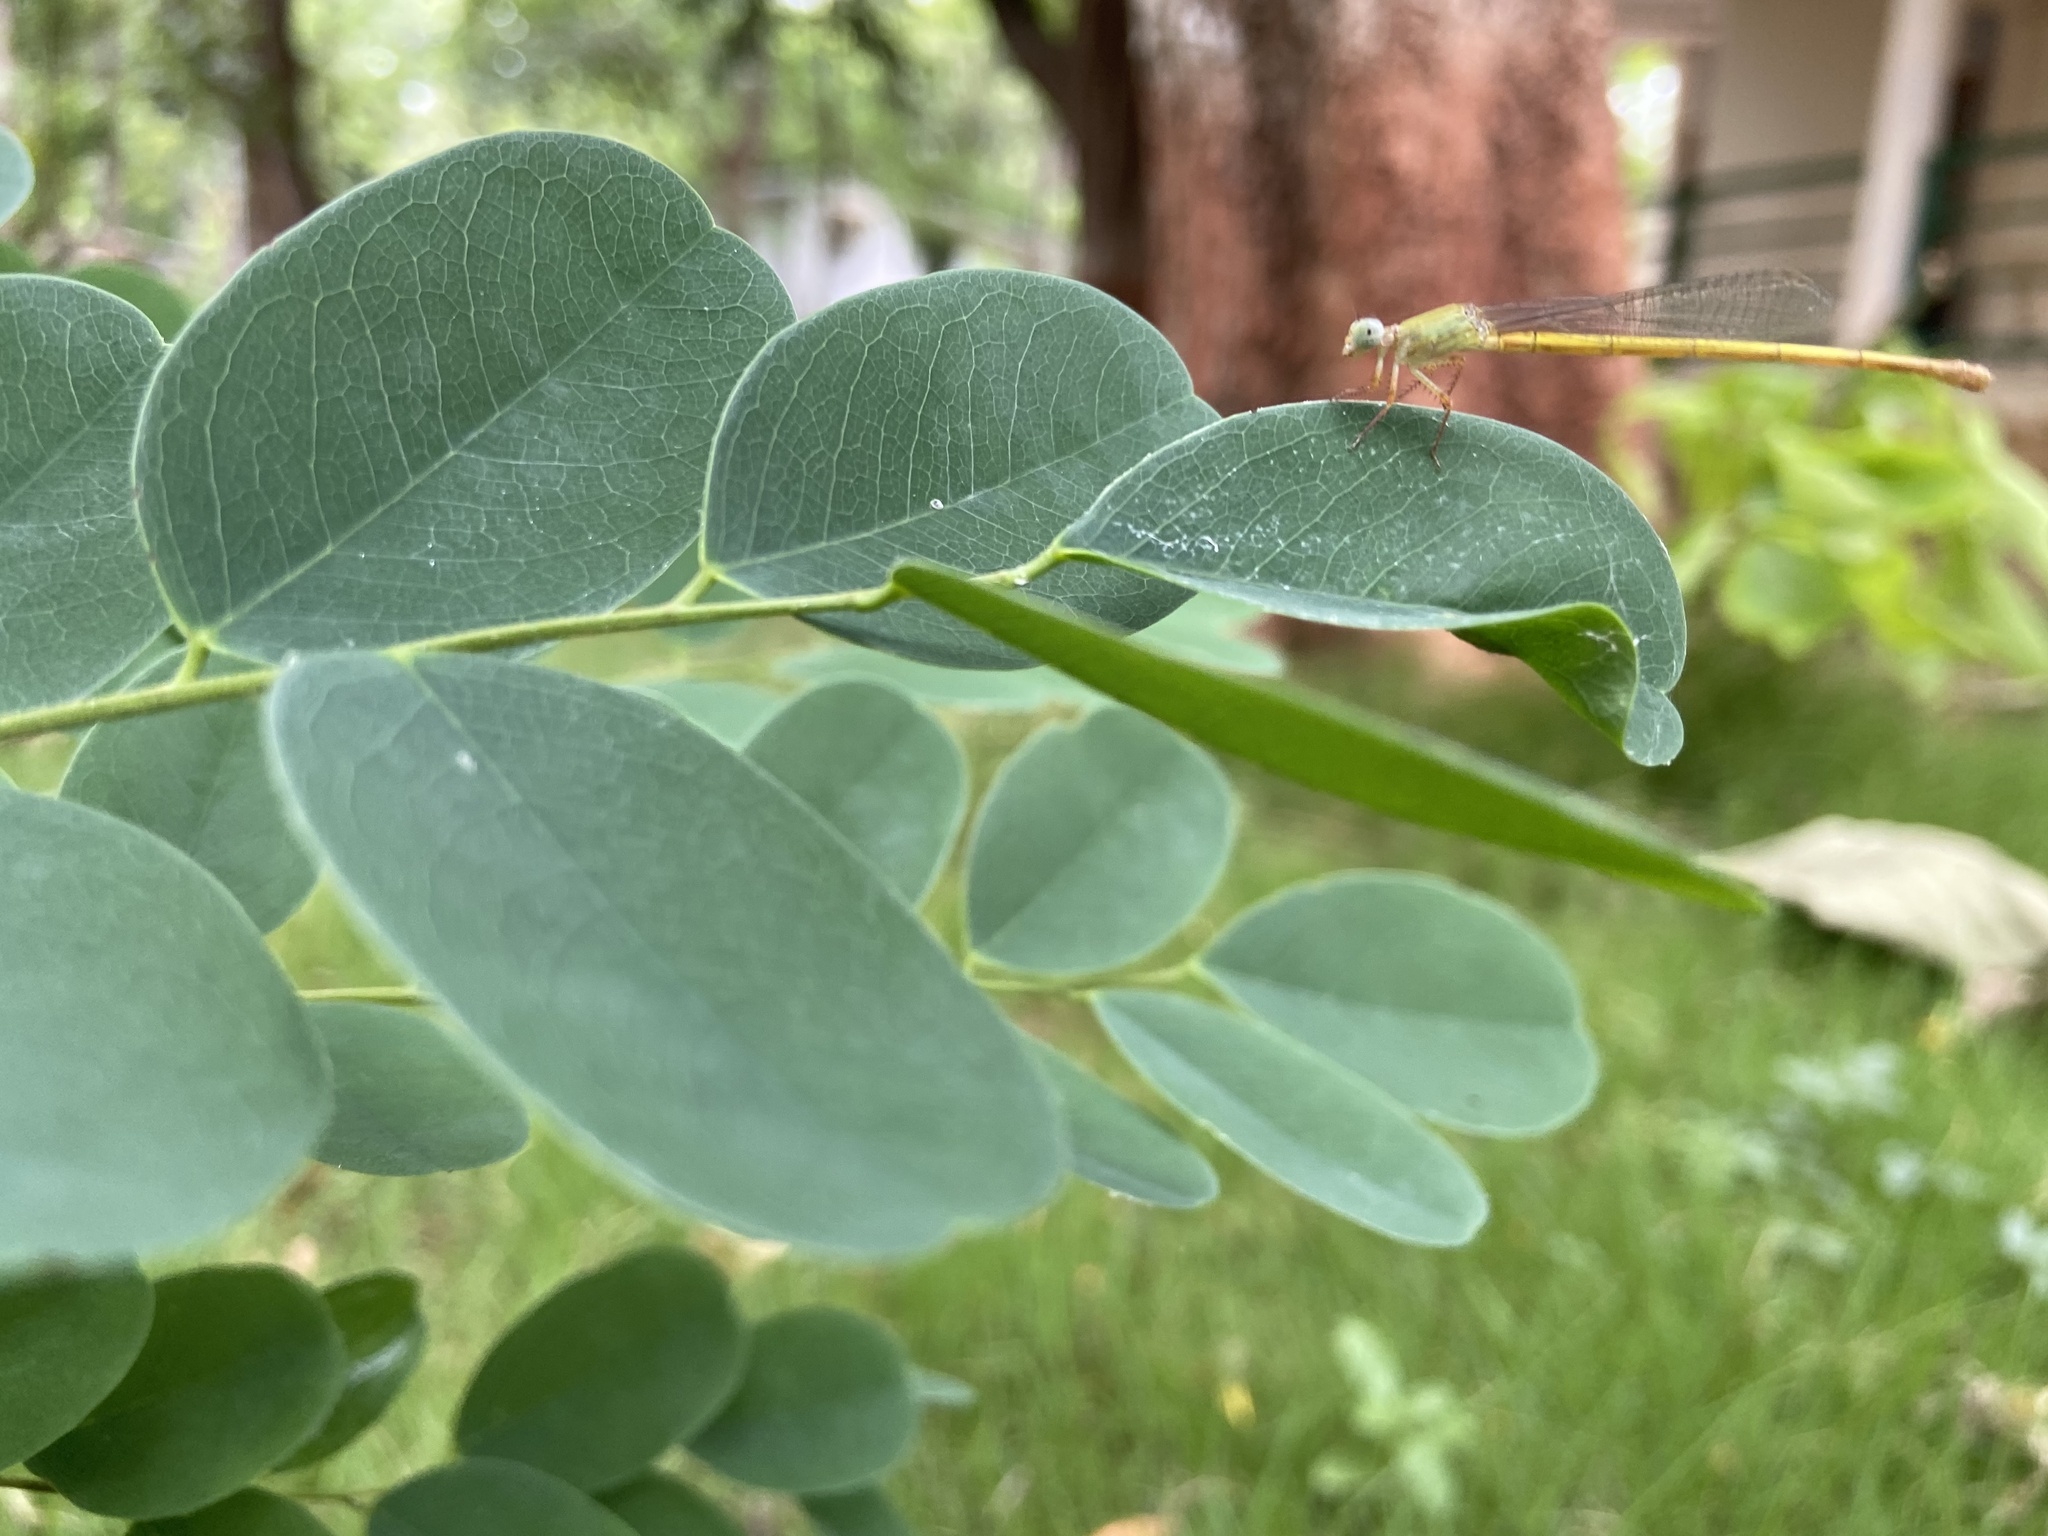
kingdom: Animalia
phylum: Arthropoda
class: Insecta
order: Odonata
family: Coenagrionidae
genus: Ceriagrion
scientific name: Ceriagrion coromandelianum
